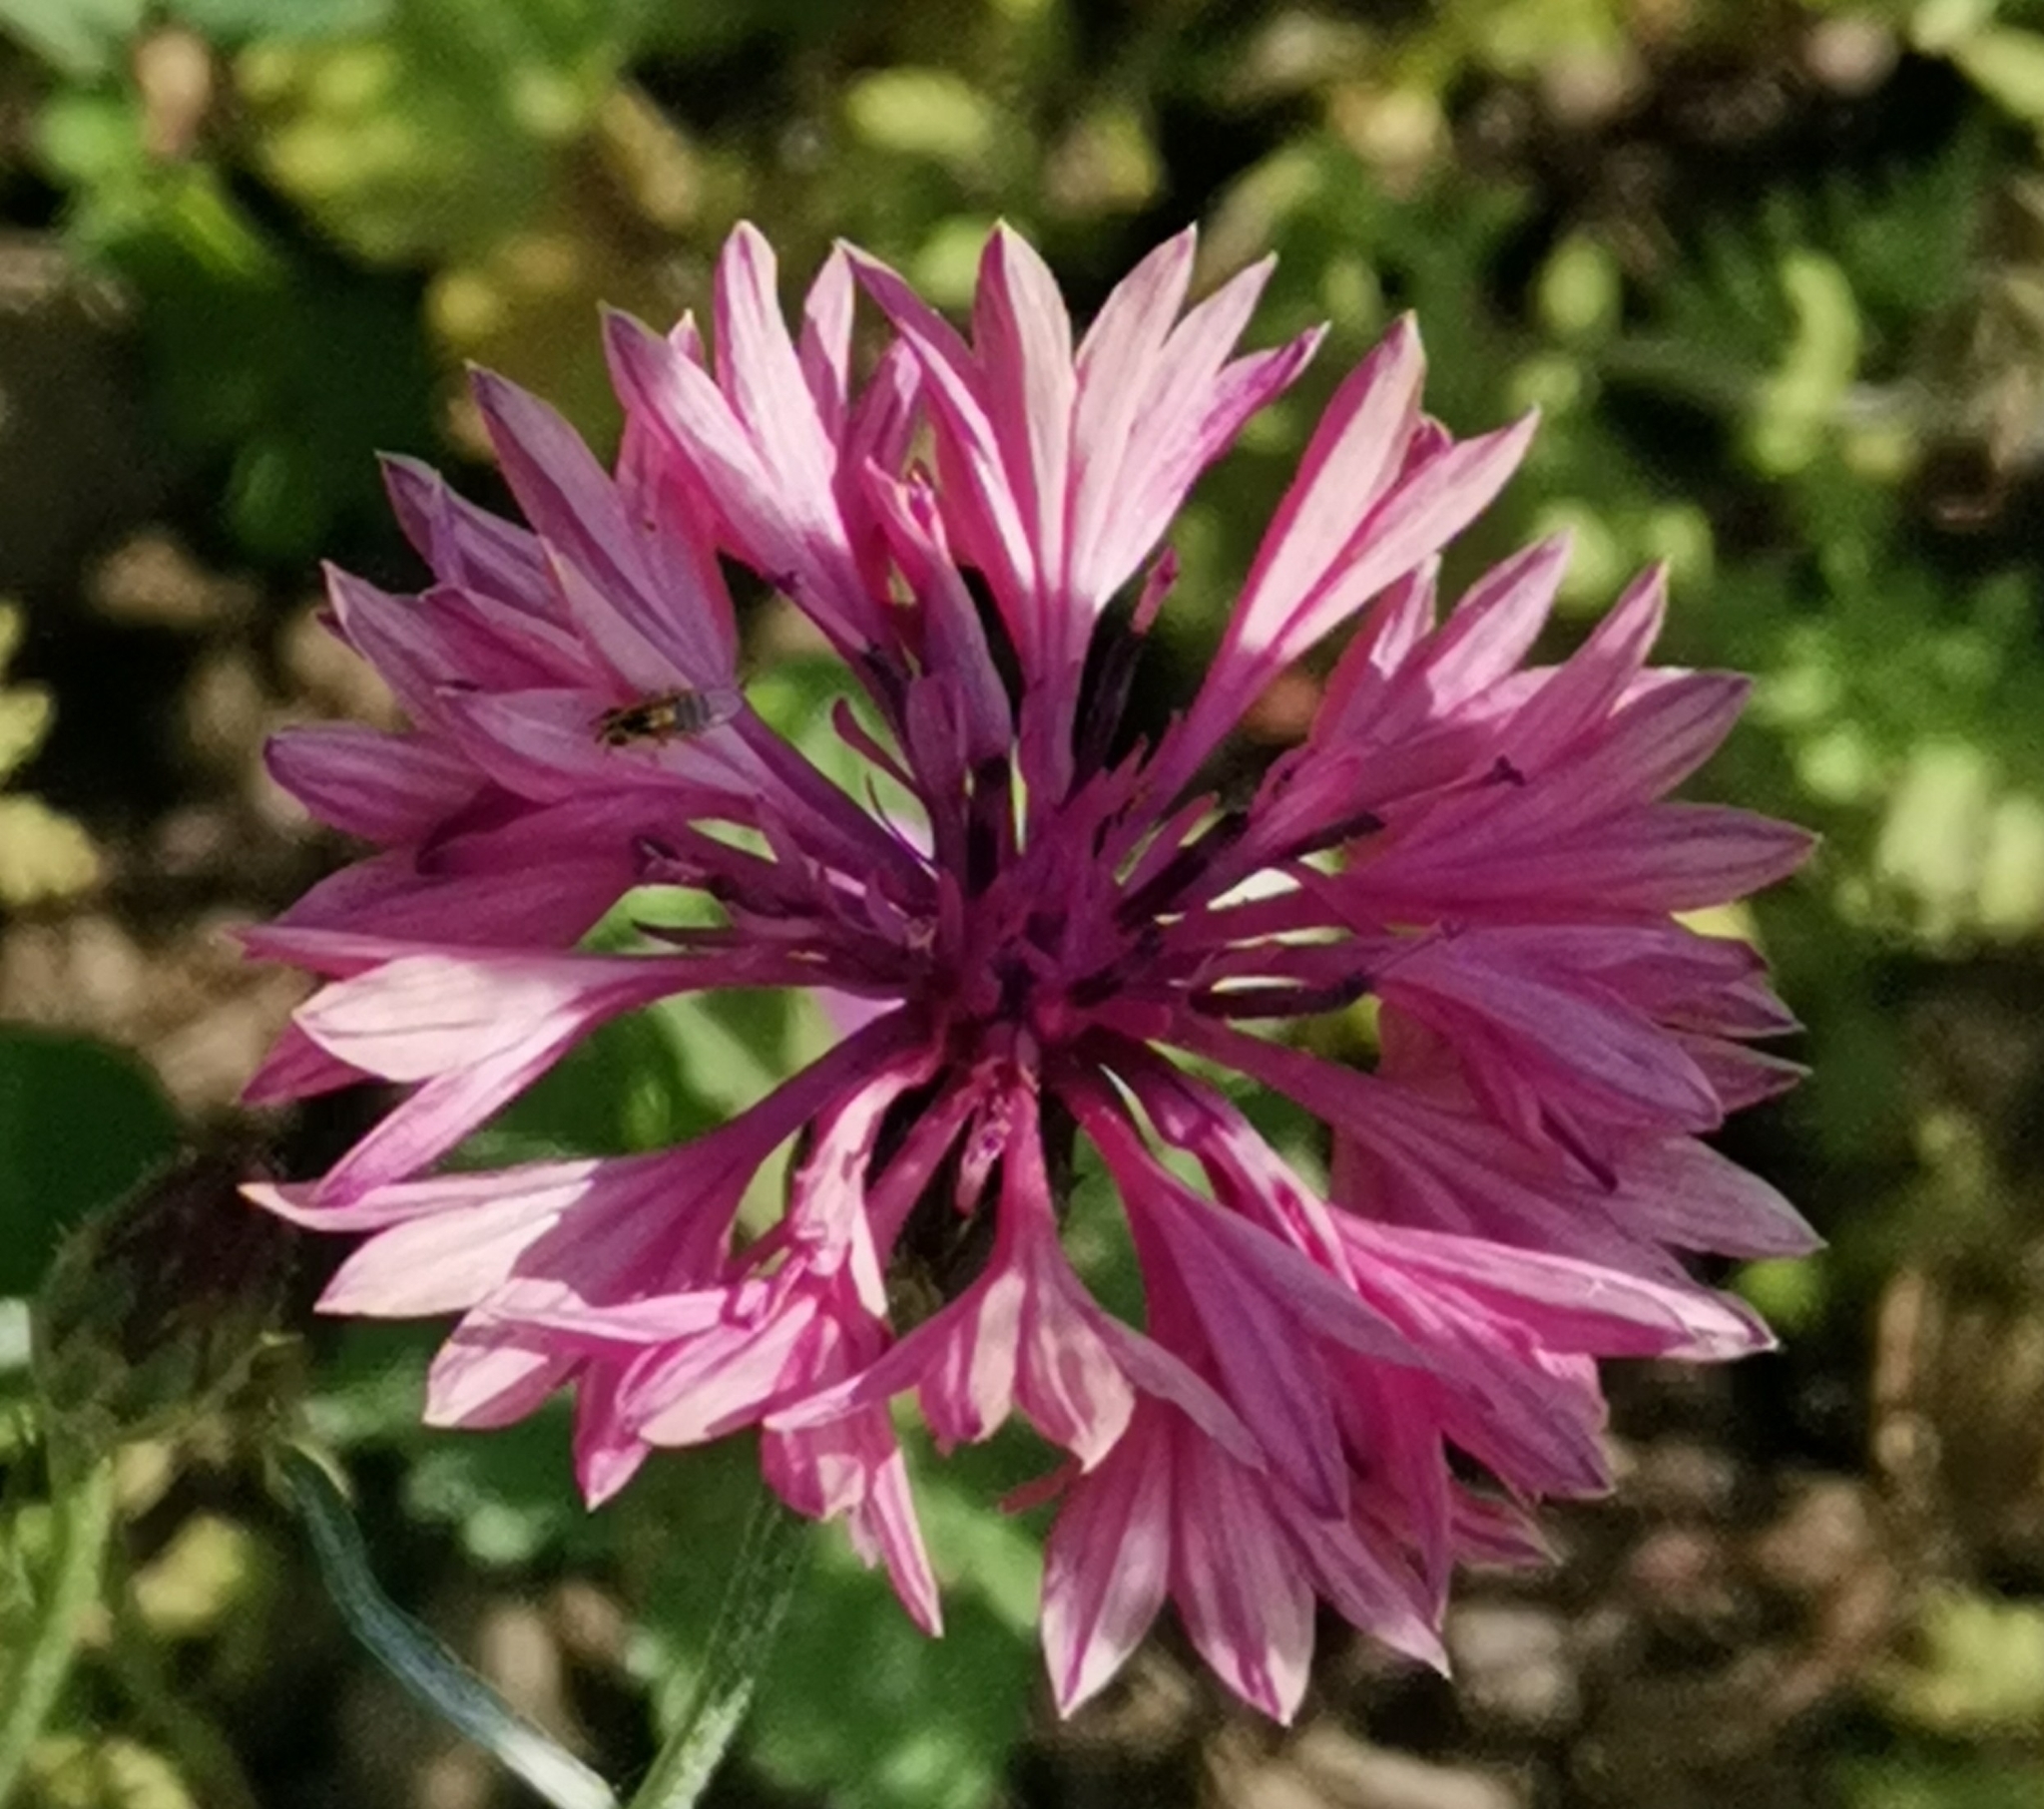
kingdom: Plantae
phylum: Tracheophyta
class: Magnoliopsida
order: Asterales
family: Asteraceae
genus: Centaurea
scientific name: Centaurea cyanus
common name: Cornflower
